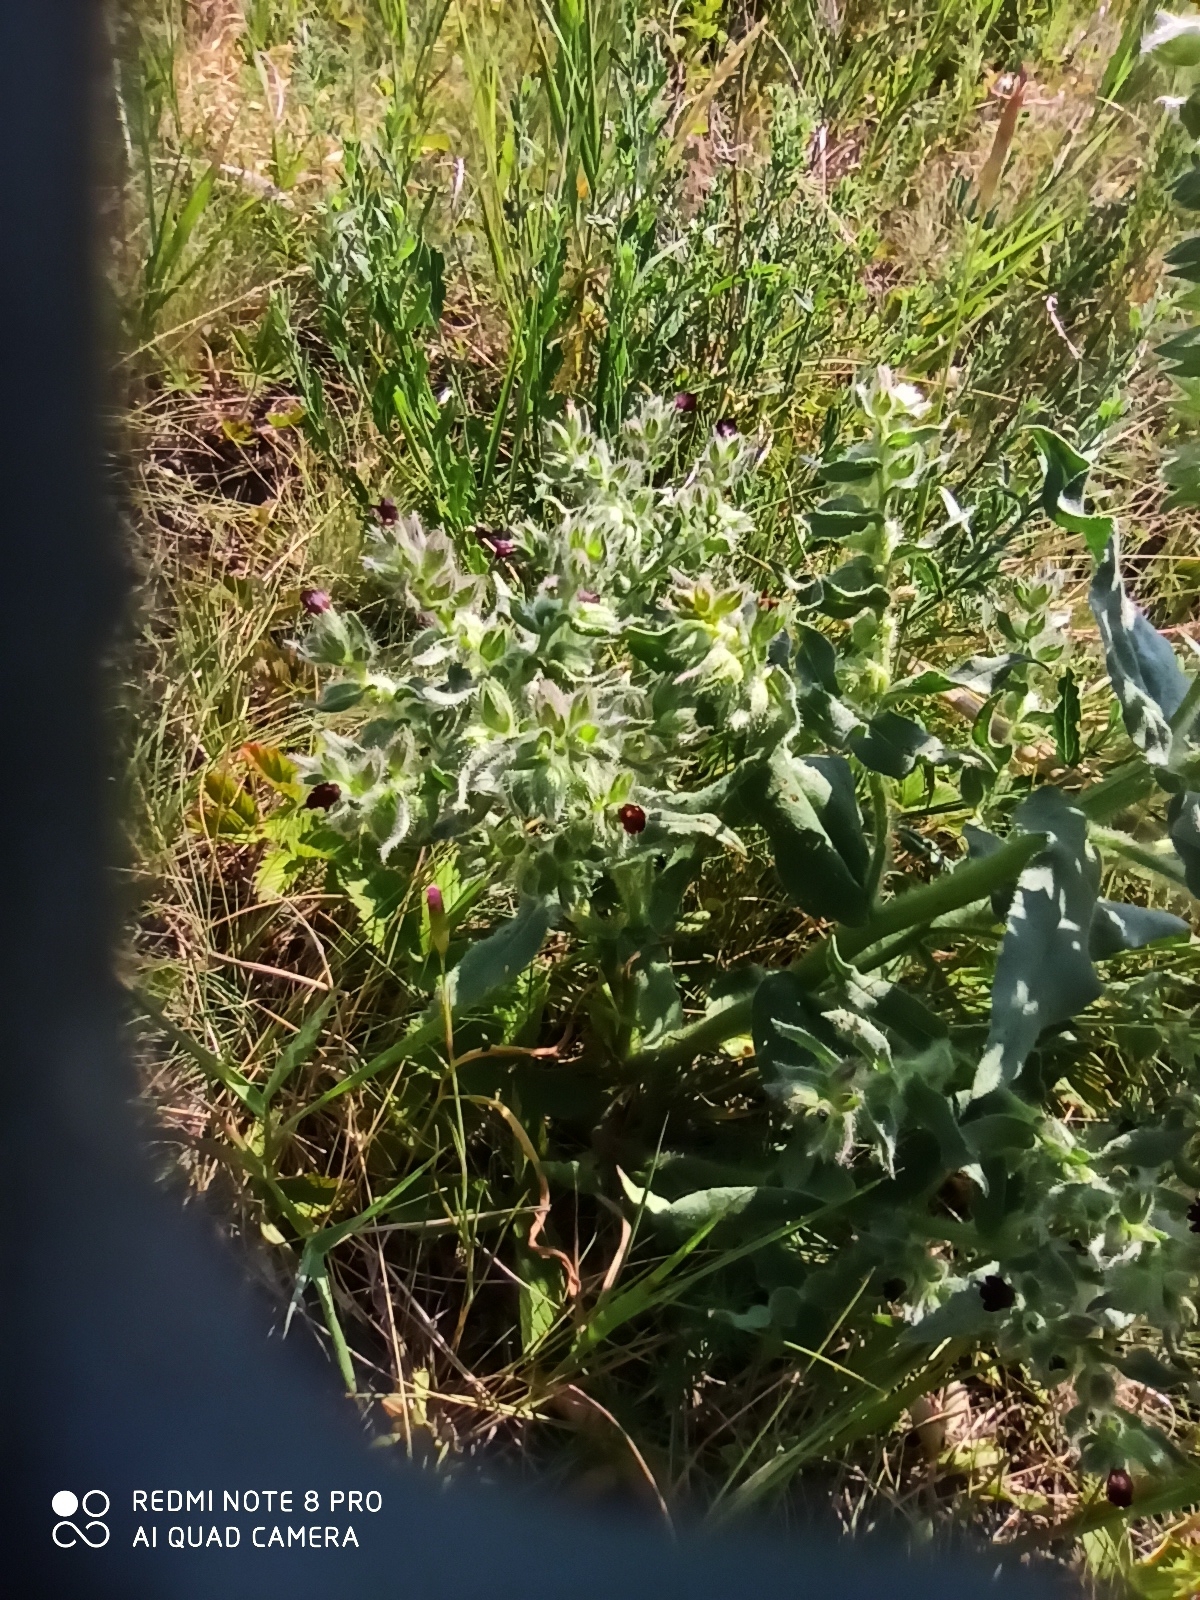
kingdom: Plantae
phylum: Tracheophyta
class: Magnoliopsida
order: Boraginales
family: Boraginaceae
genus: Nonea
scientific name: Nonea pulla
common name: Brown nonea
